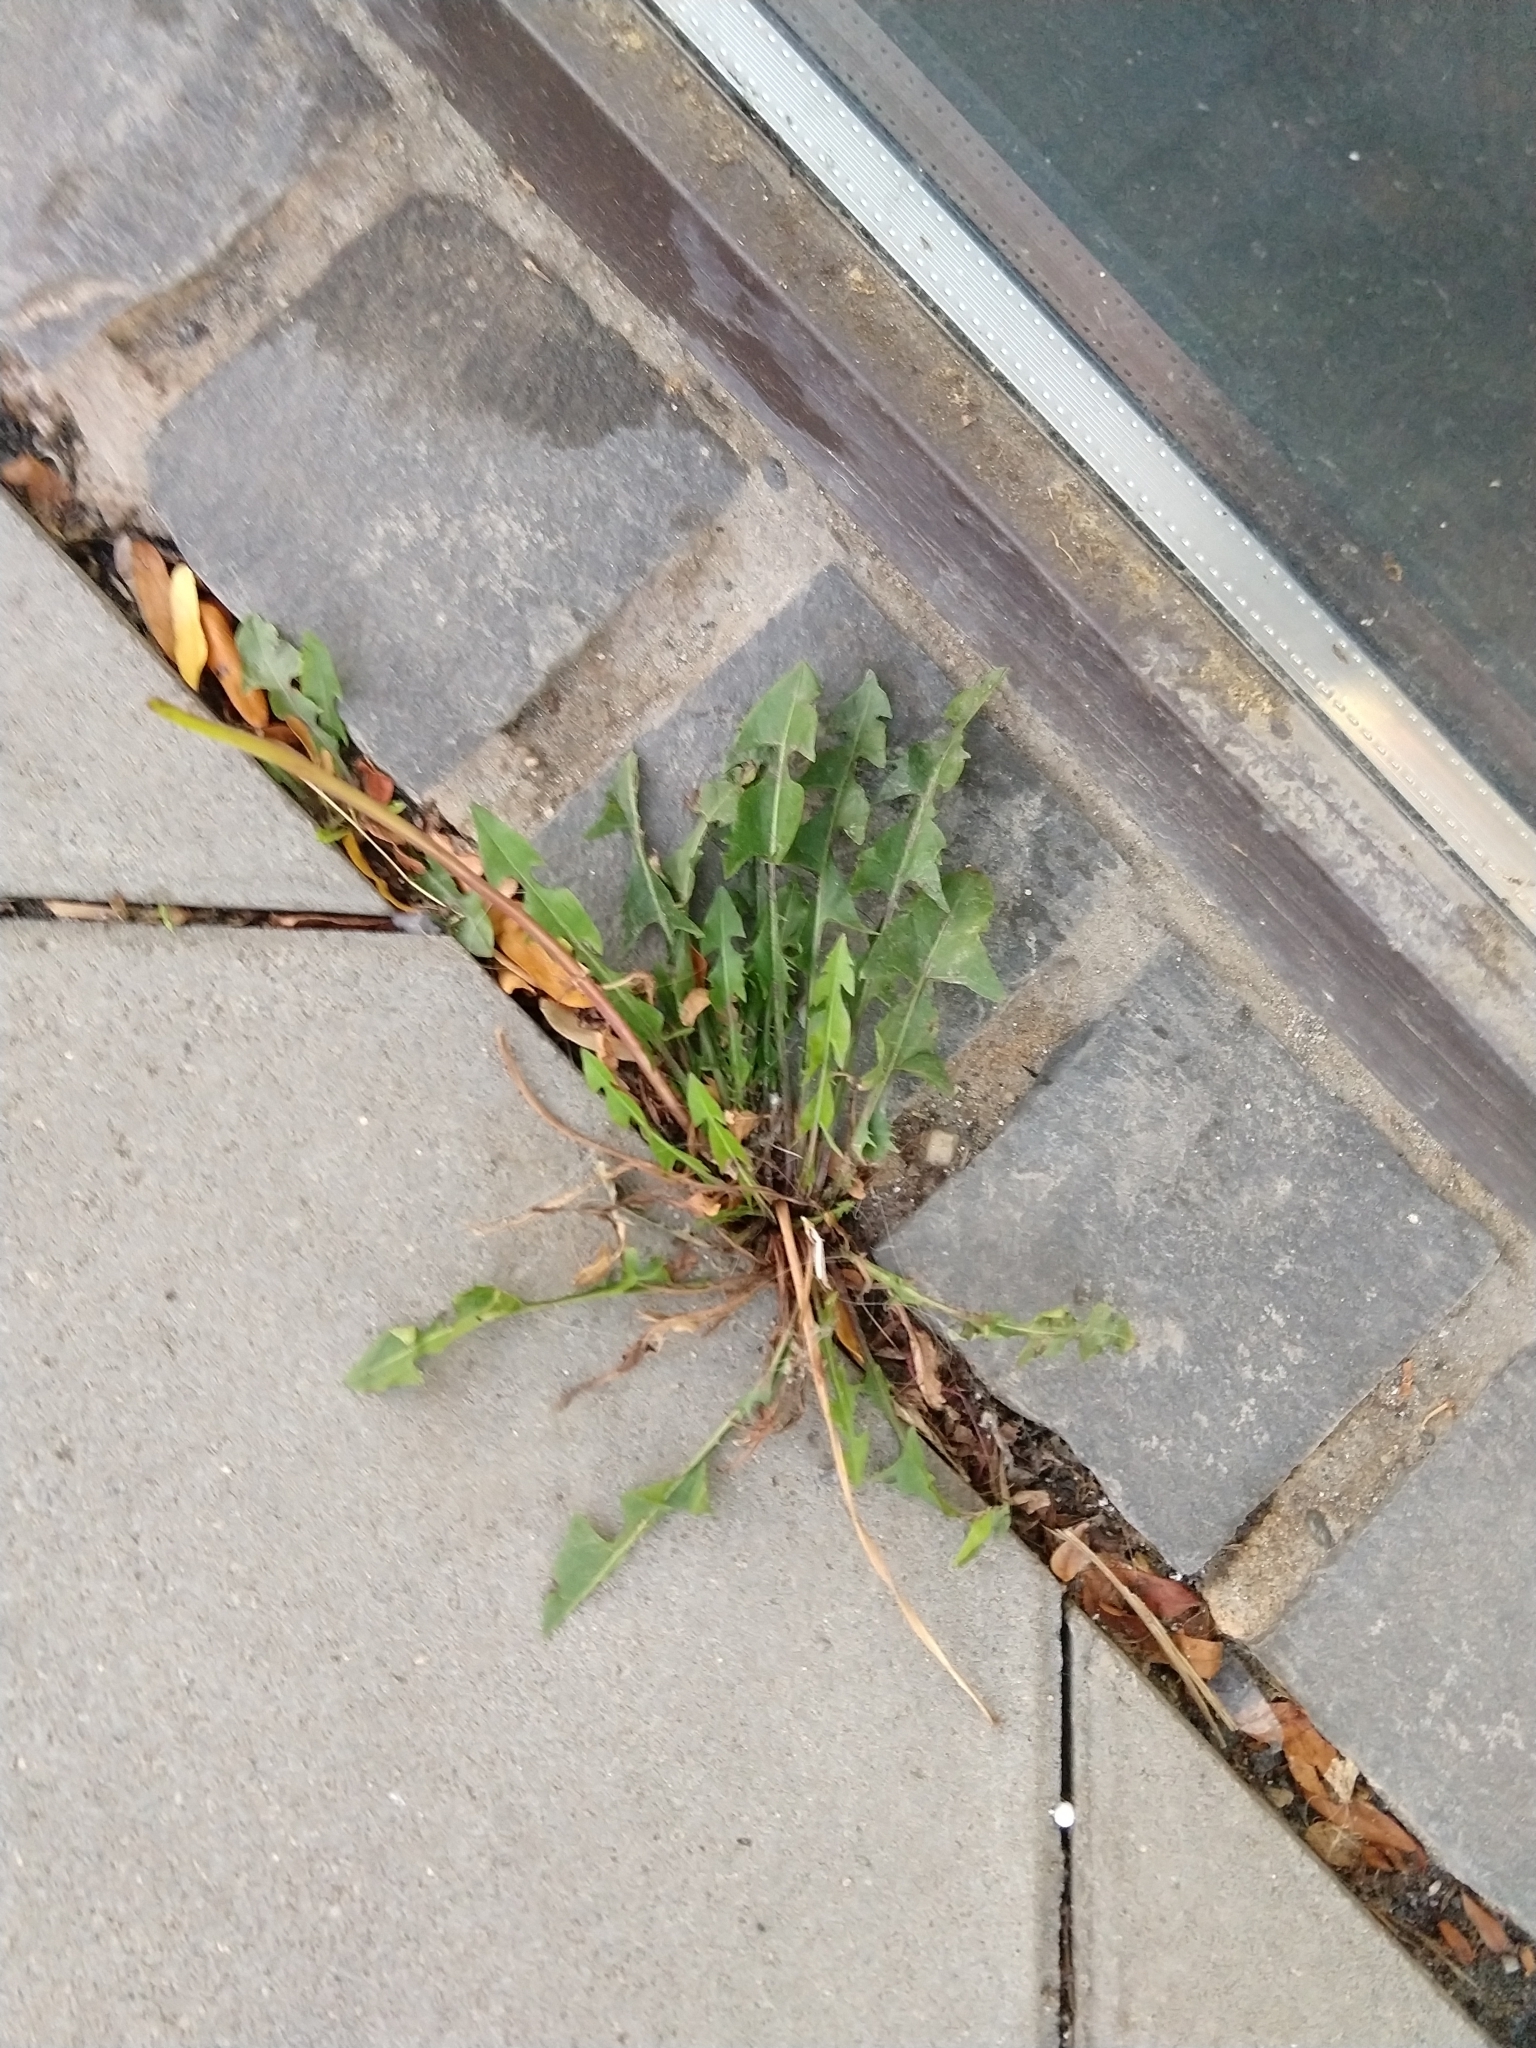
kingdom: Plantae
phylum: Tracheophyta
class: Magnoliopsida
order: Asterales
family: Asteraceae
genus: Taraxacum
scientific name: Taraxacum officinale
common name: Common dandelion
